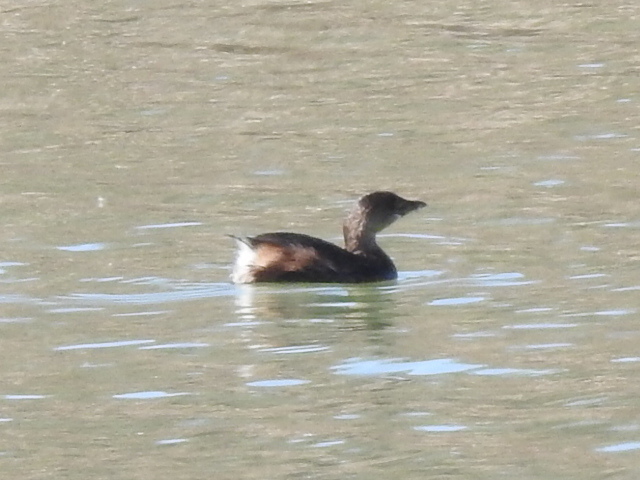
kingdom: Animalia
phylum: Chordata
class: Aves
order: Podicipediformes
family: Podicipedidae
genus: Podilymbus
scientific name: Podilymbus podiceps
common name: Pied-billed grebe
